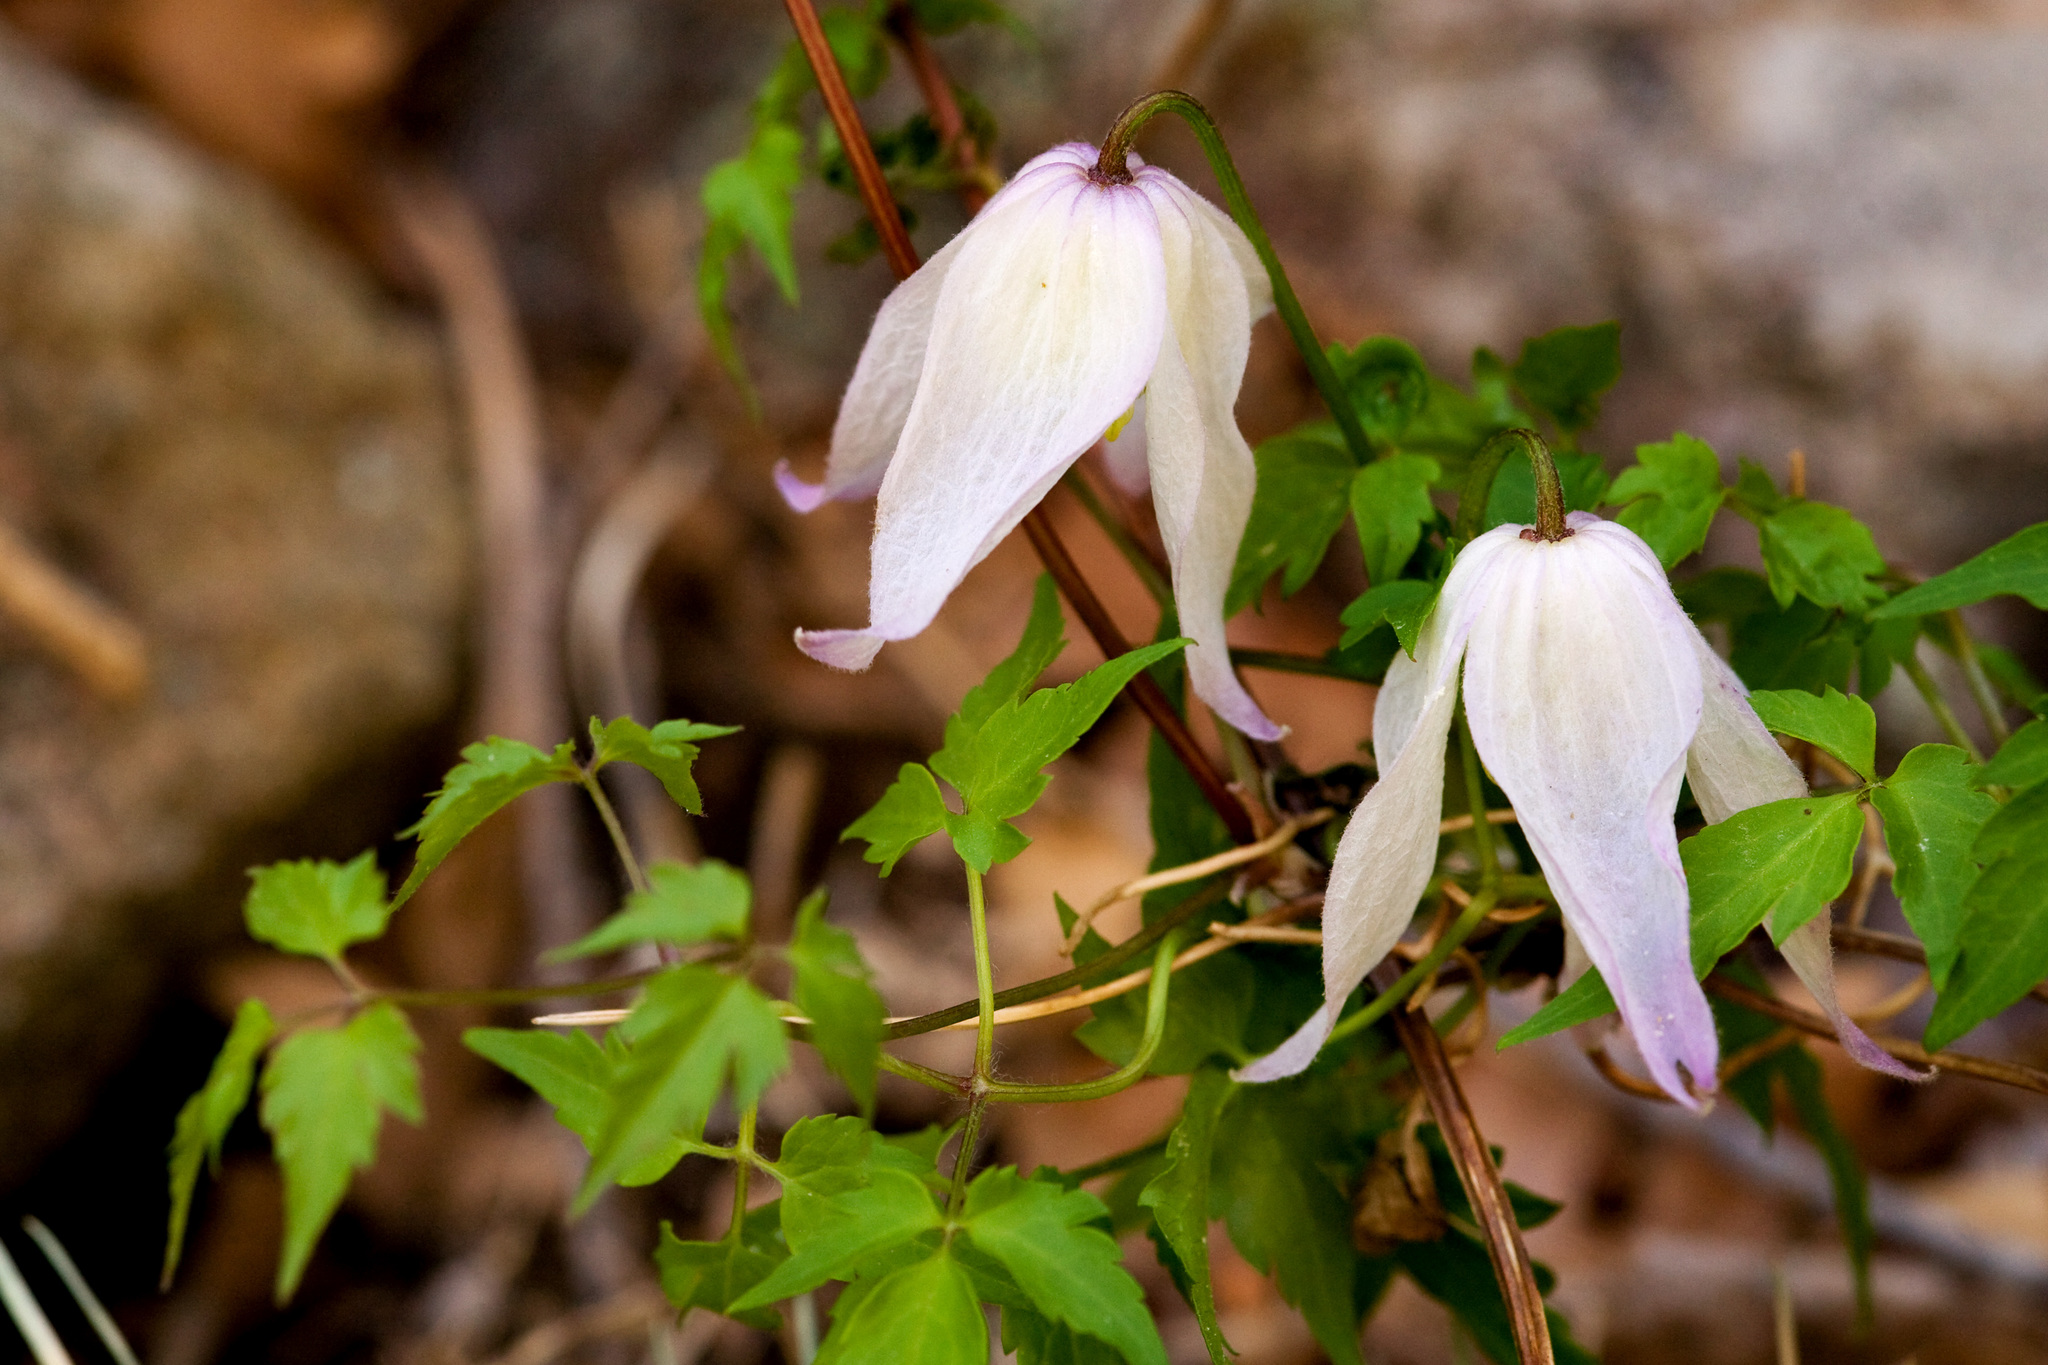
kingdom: Plantae
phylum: Tracheophyta
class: Magnoliopsida
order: Ranunculales
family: Ranunculaceae
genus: Clematis
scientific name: Clematis columbiana
